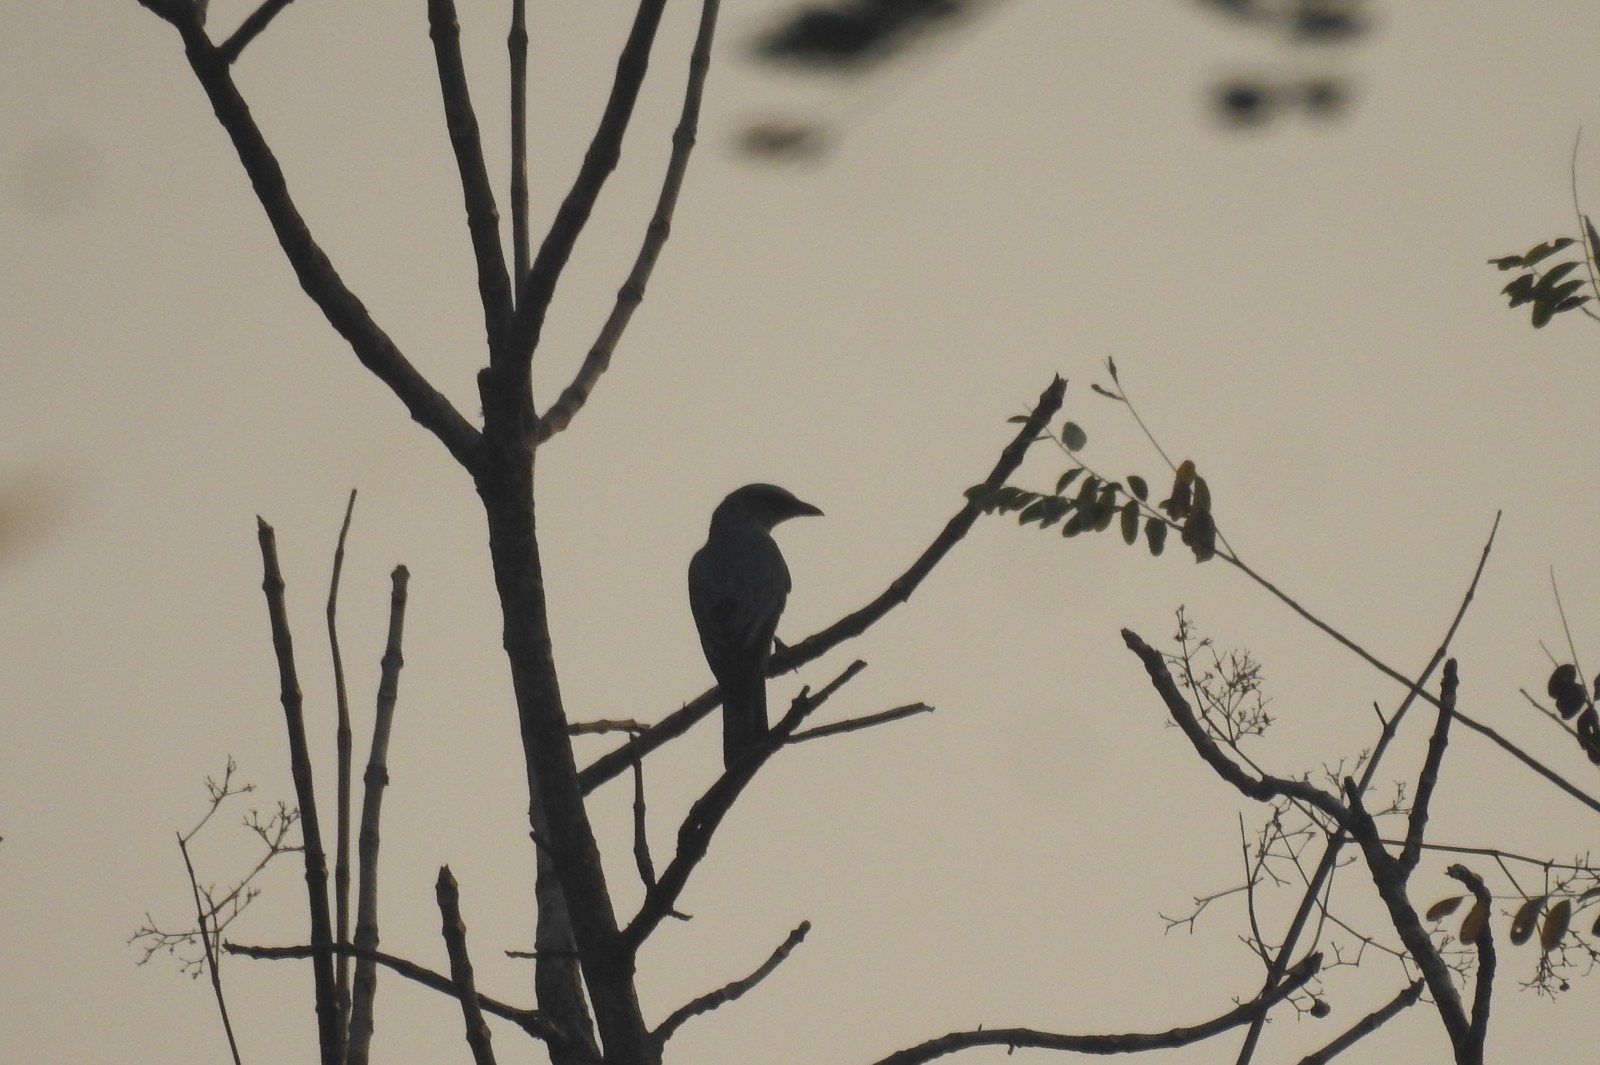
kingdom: Animalia
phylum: Chordata
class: Aves
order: Passeriformes
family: Campephagidae
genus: Coracina
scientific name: Coracina macei
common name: Large cuckooshrike
